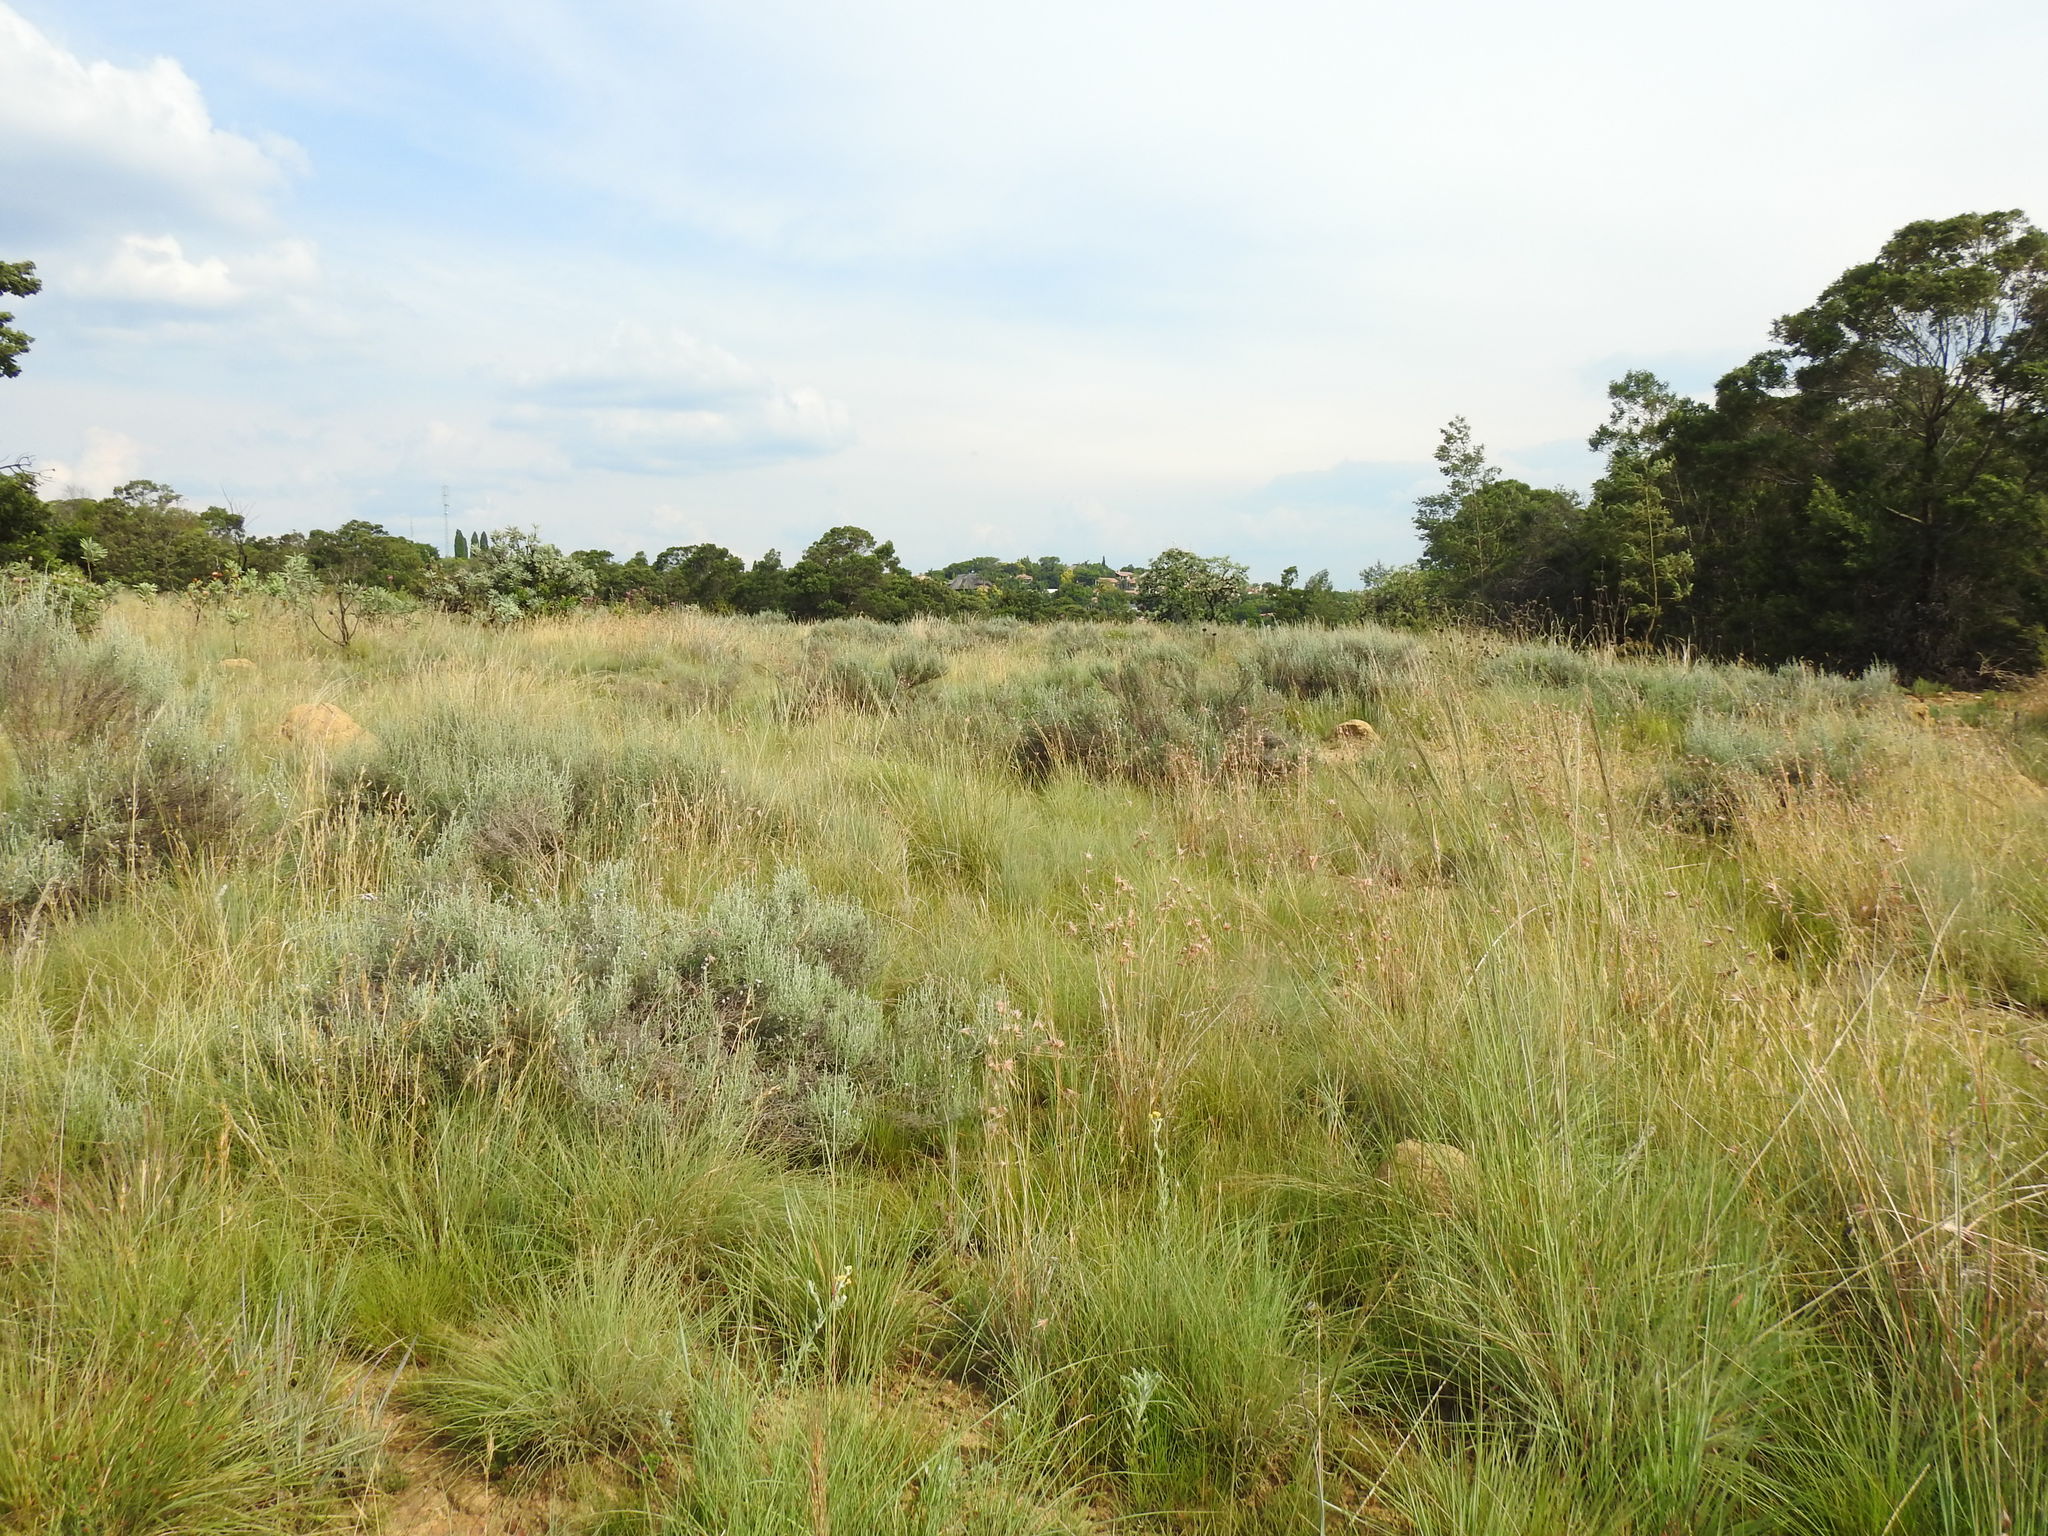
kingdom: Plantae
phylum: Tracheophyta
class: Magnoliopsida
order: Asterales
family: Asteraceae
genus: Seriphium
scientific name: Seriphium
